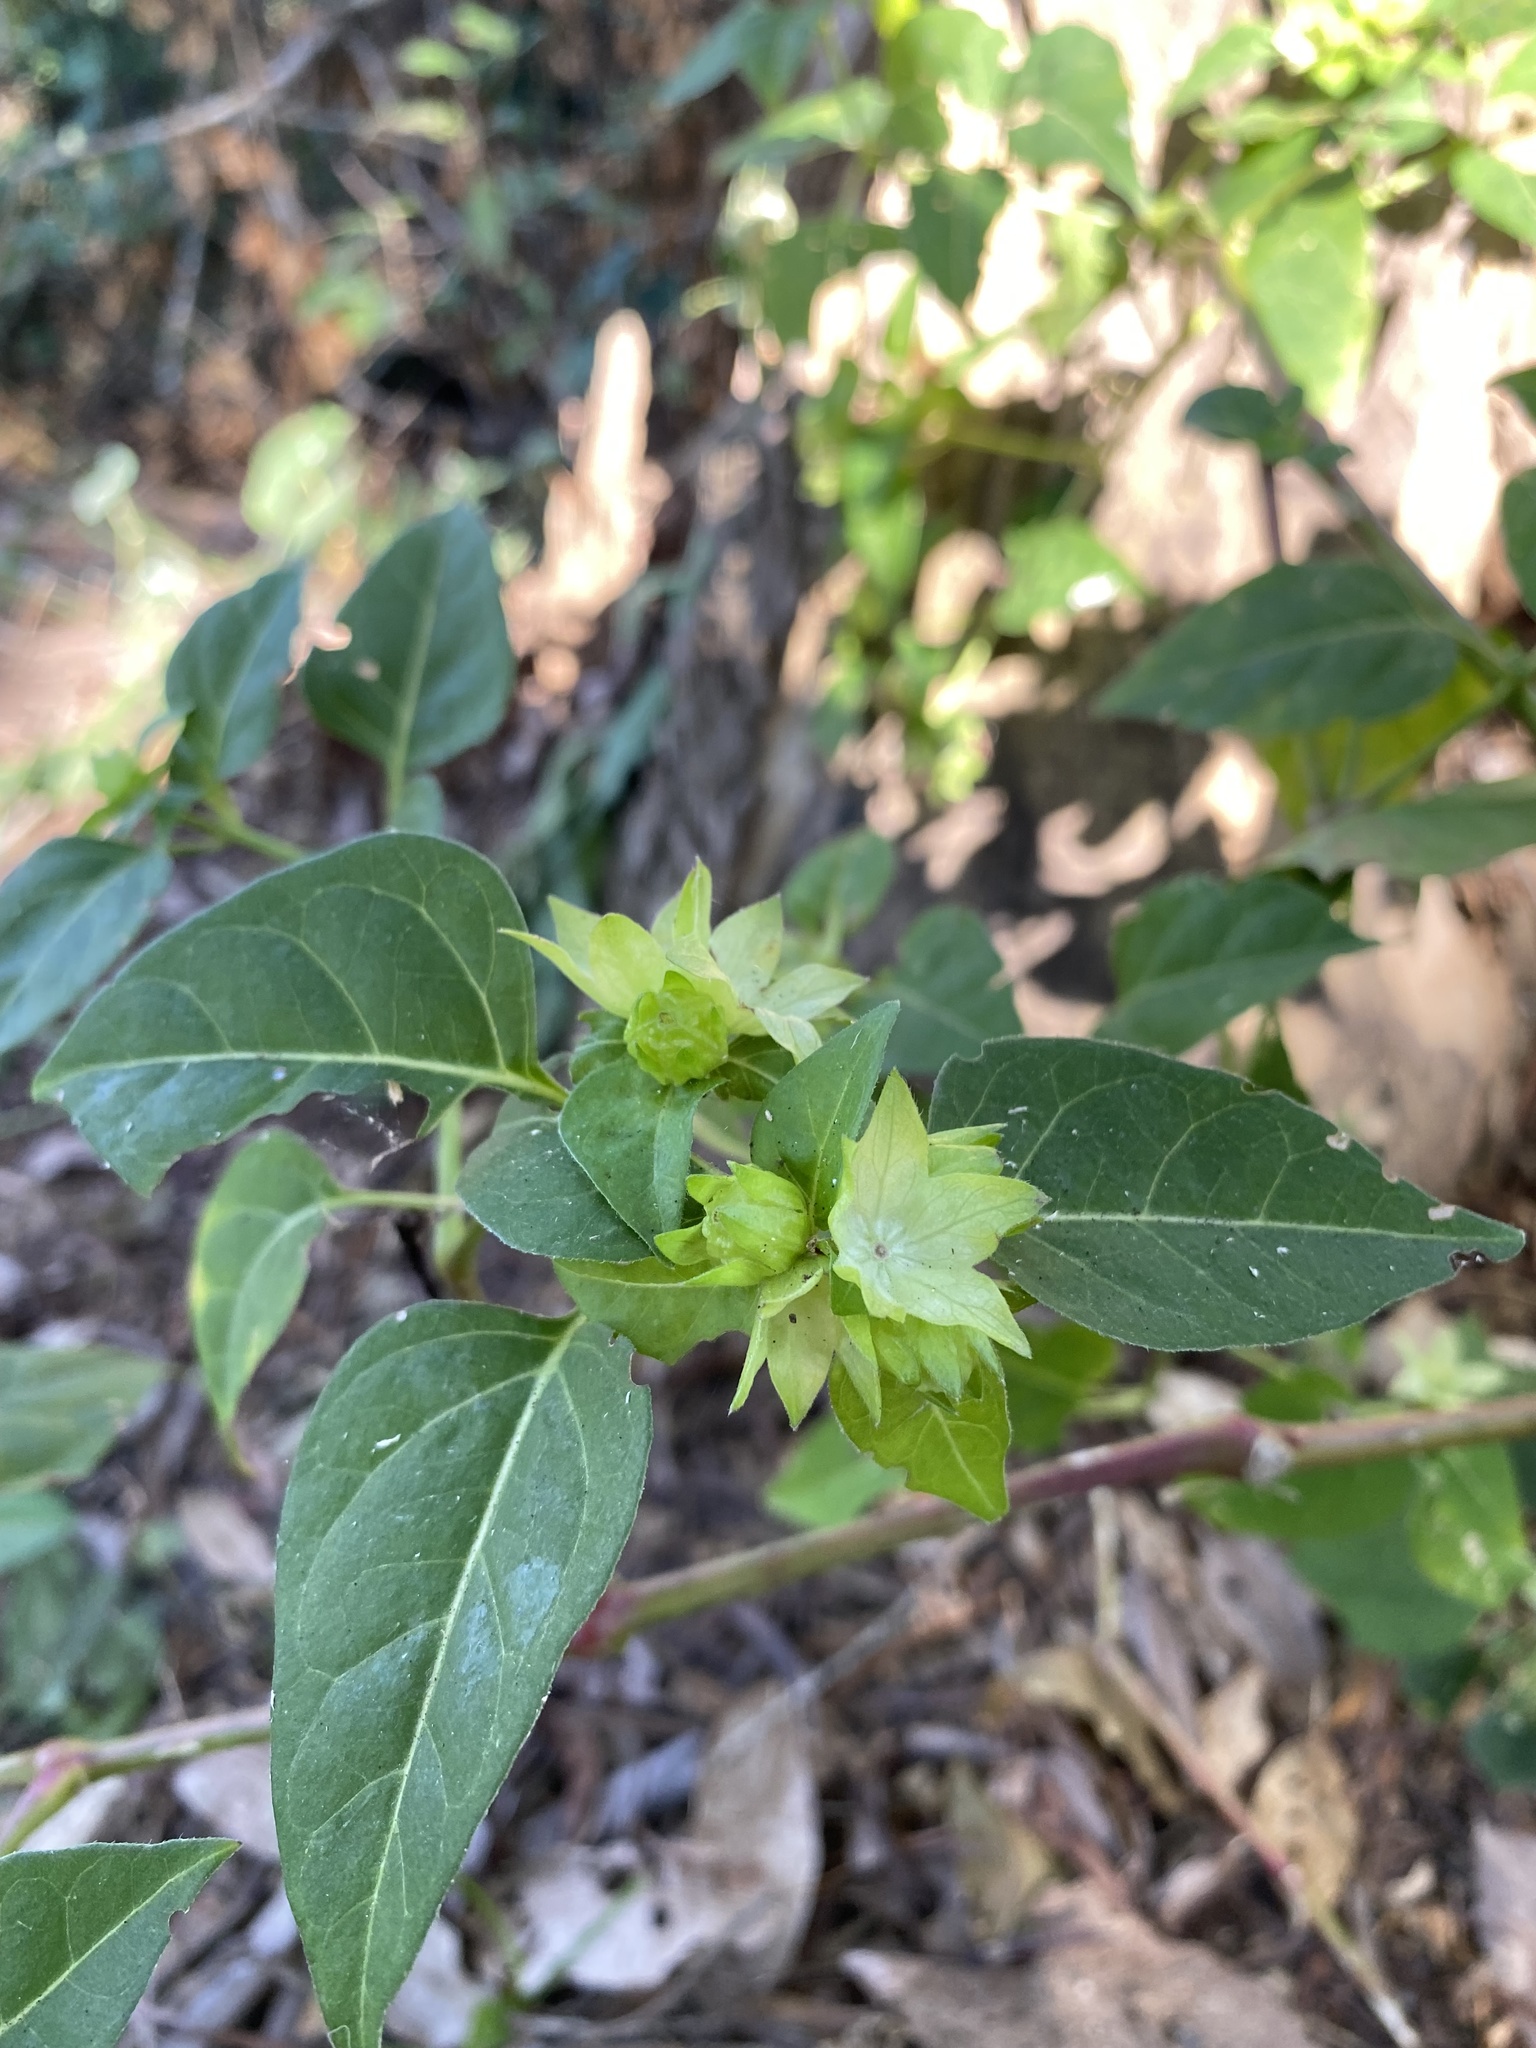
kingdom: Plantae
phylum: Tracheophyta
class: Magnoliopsida
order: Caryophyllales
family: Nyctaginaceae
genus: Mirabilis
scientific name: Mirabilis jalapa
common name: Marvel-of-peru
